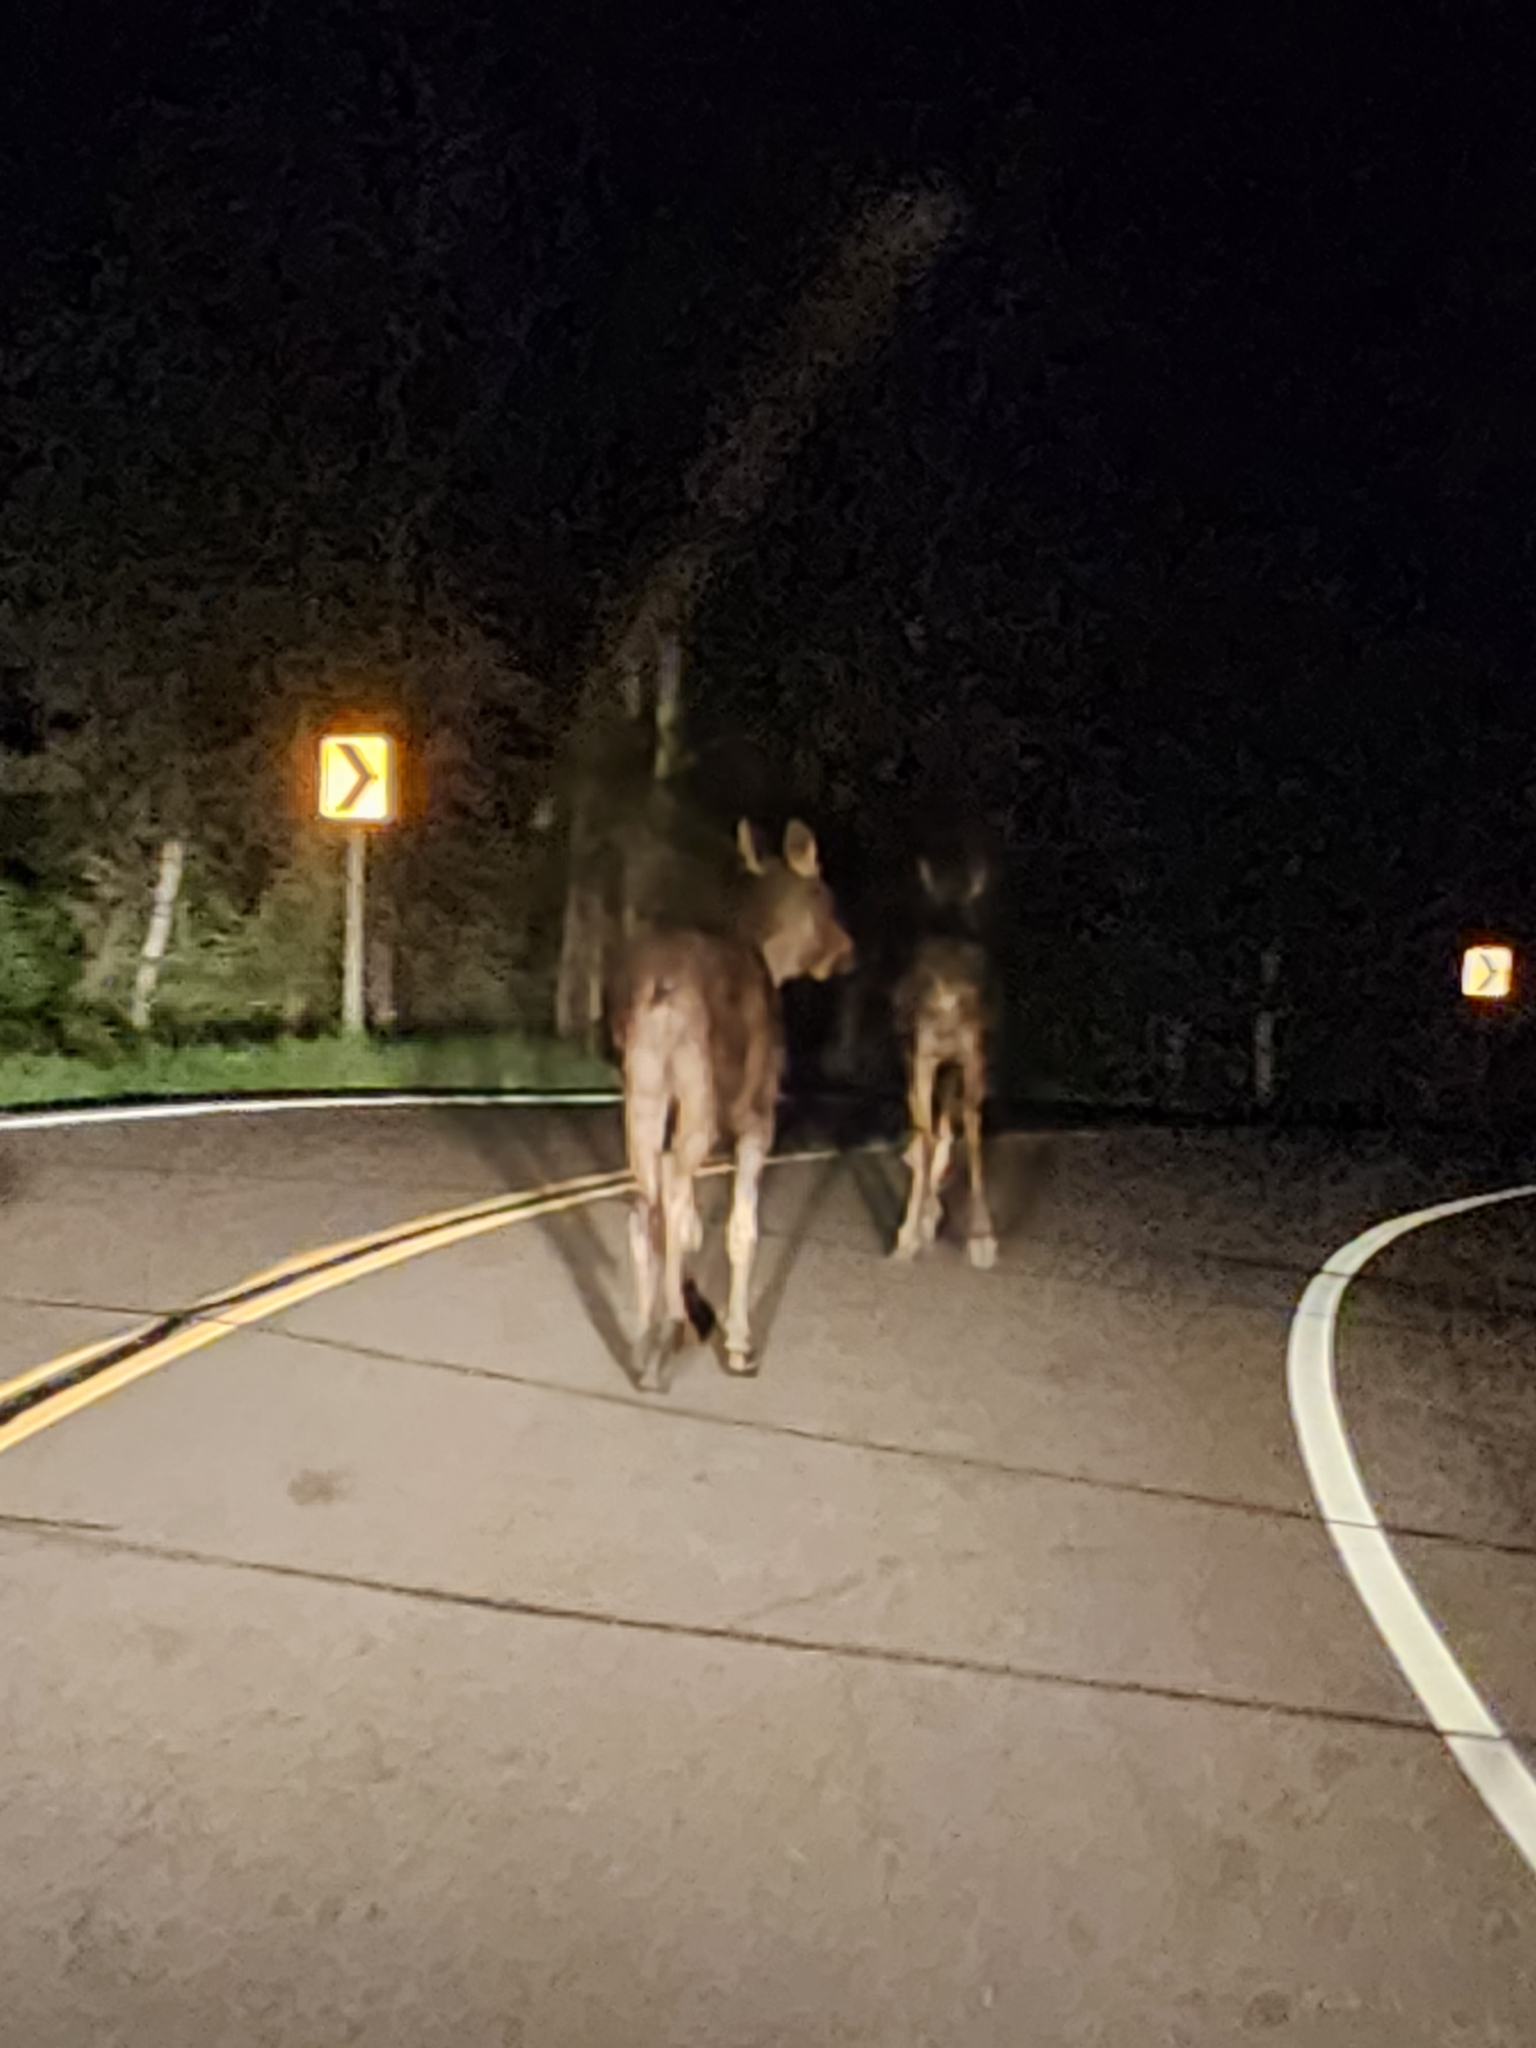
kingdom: Animalia
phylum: Chordata
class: Mammalia
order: Artiodactyla
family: Cervidae
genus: Alces
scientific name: Alces alces
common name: Moose
